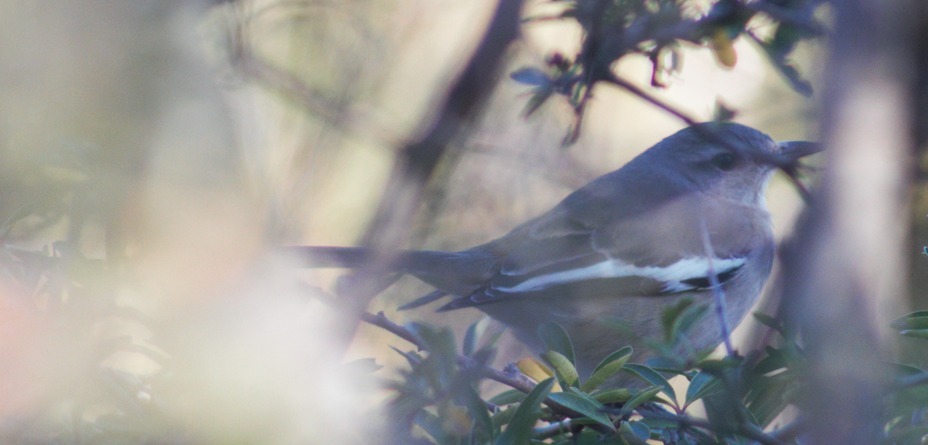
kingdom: Animalia
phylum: Chordata
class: Aves
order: Passeriformes
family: Mimidae
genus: Mimus
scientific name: Mimus triurus
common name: White-banded mockingbird
